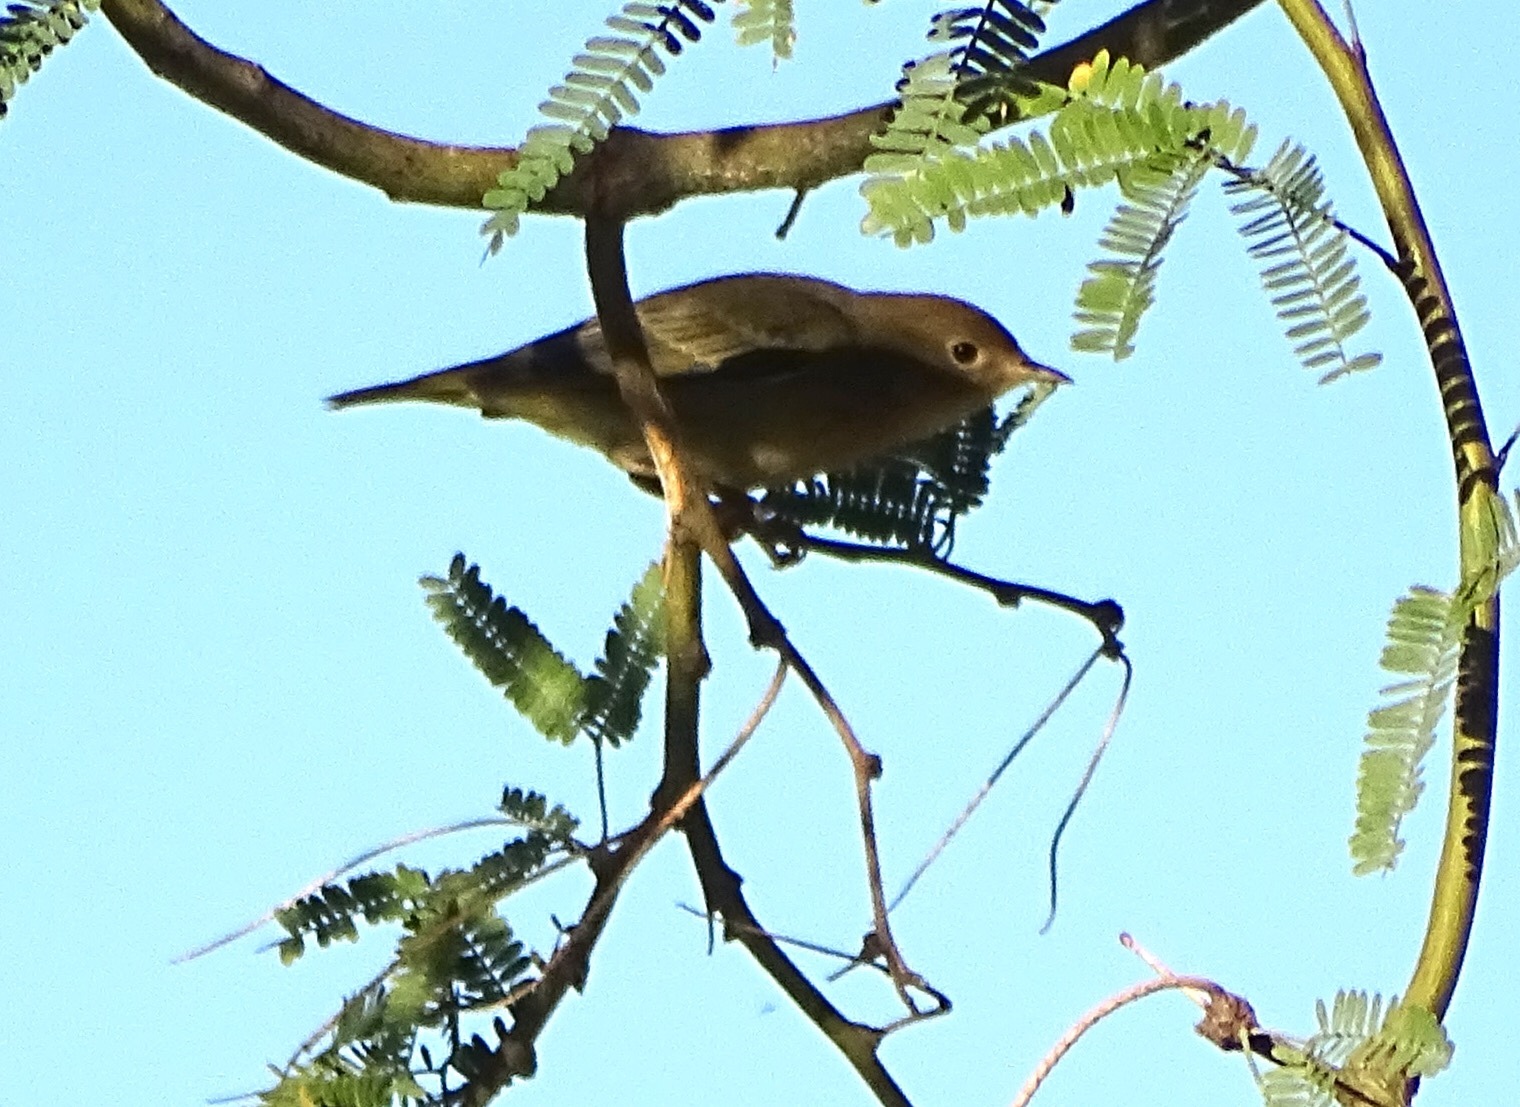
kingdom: Animalia
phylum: Chordata
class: Aves
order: Passeriformes
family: Parulidae
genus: Setophaga
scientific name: Setophaga petechia
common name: Yellow warbler
